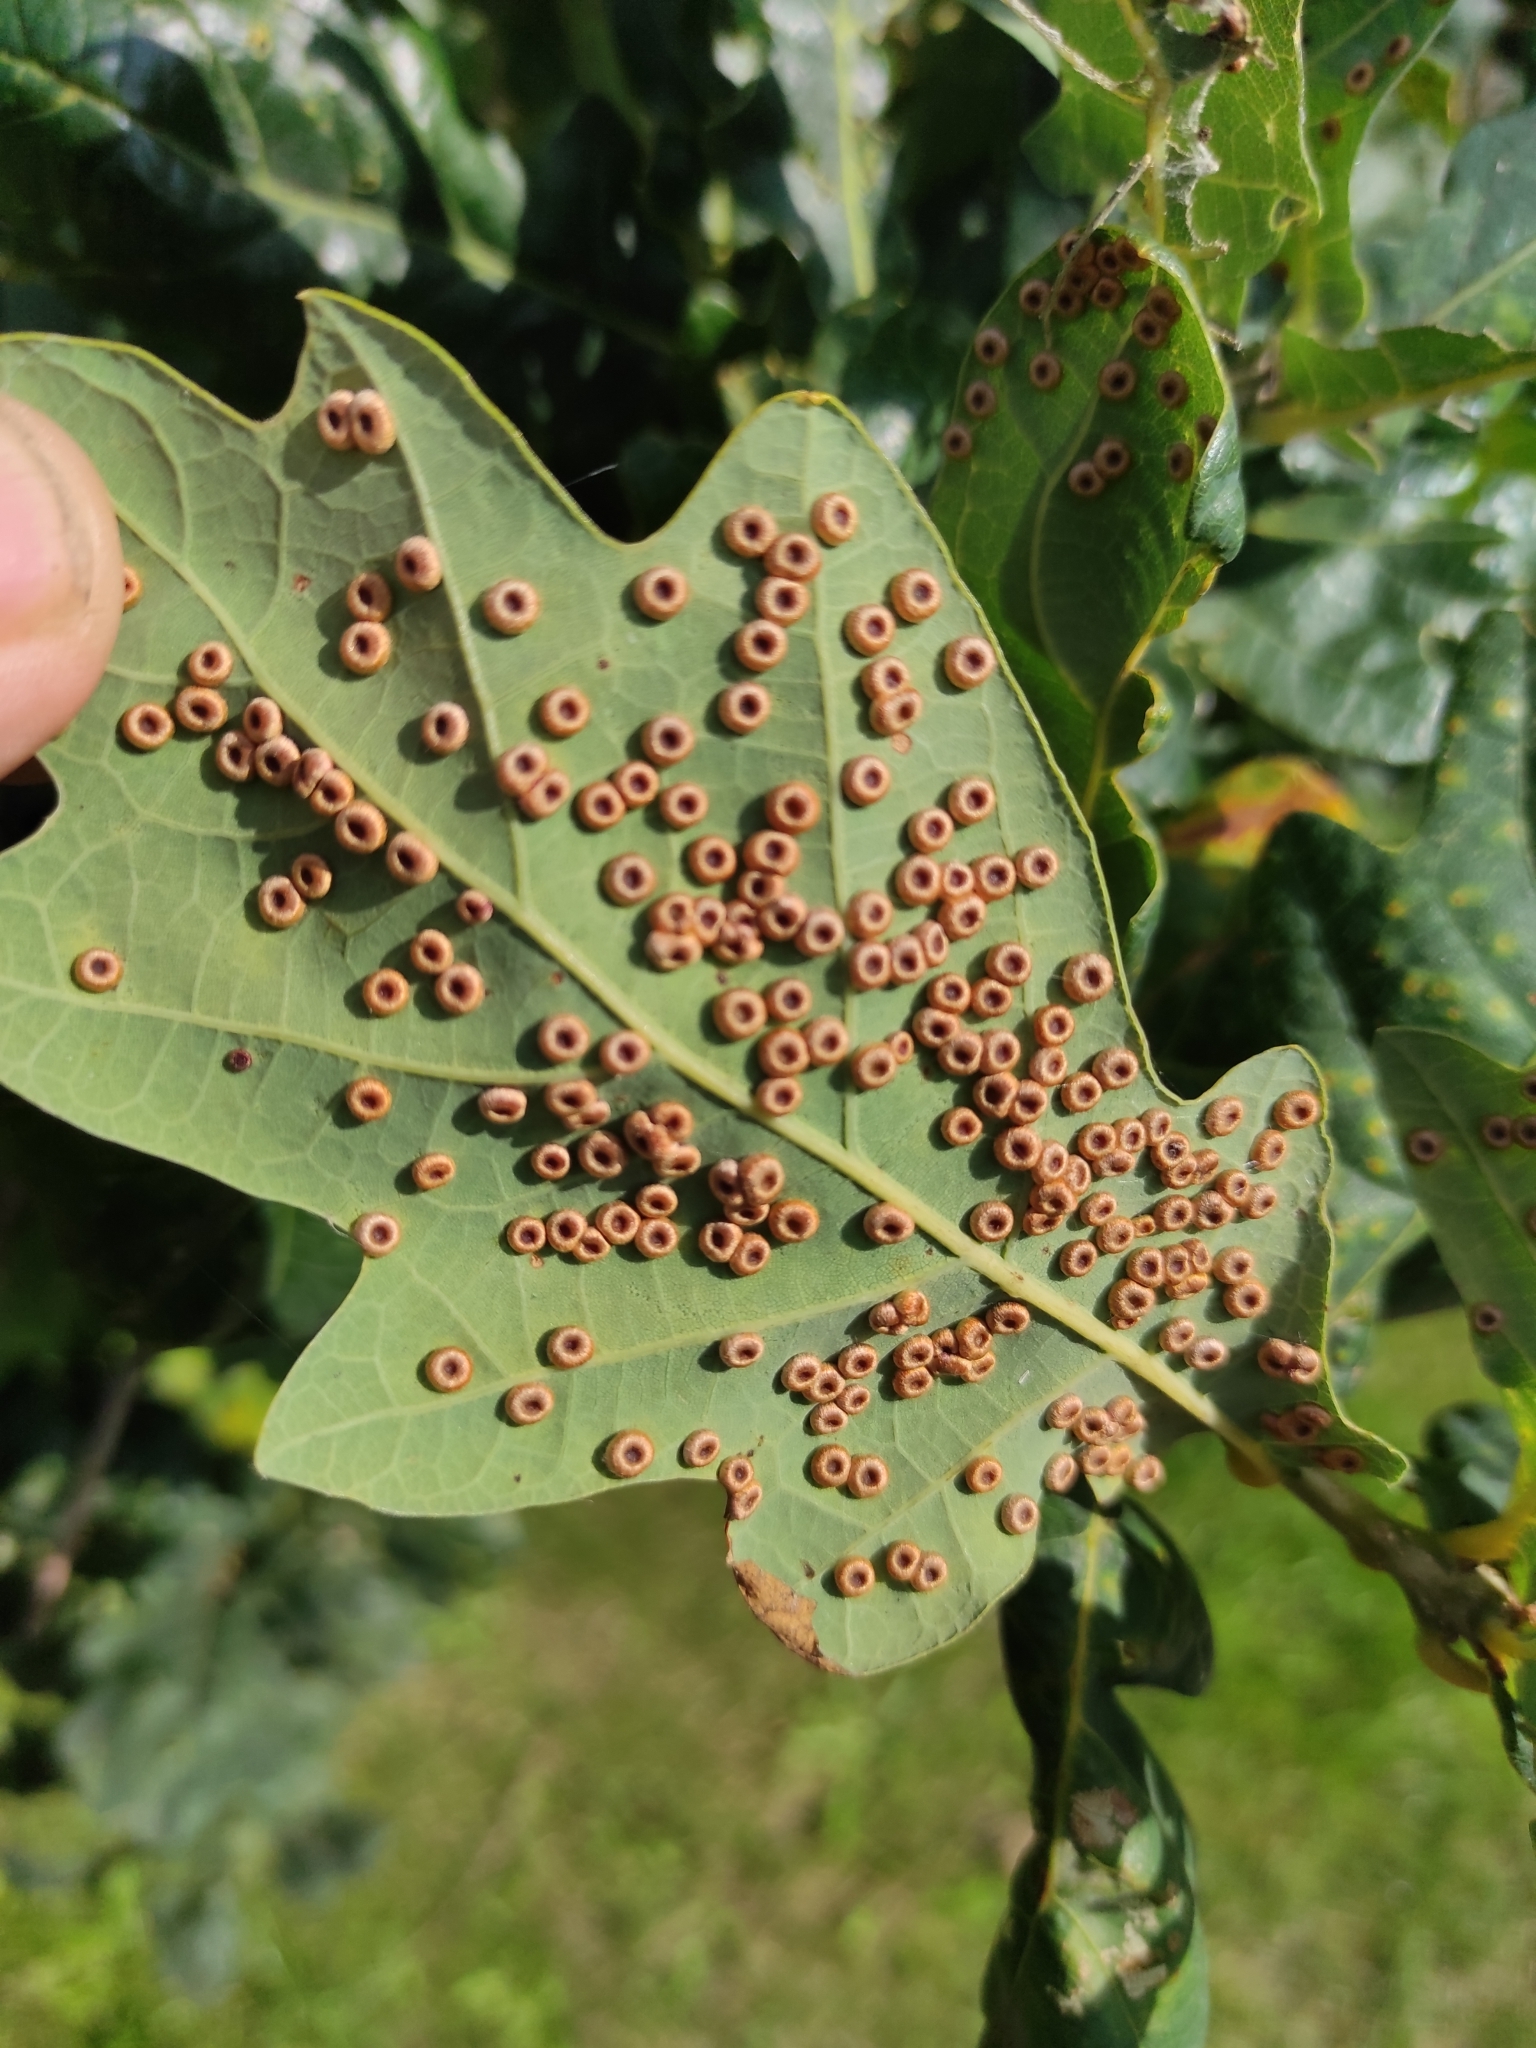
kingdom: Animalia
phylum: Arthropoda
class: Insecta
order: Hymenoptera
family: Cynipidae
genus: Neuroterus
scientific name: Neuroterus numismalis
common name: Silk-button spangle gall
